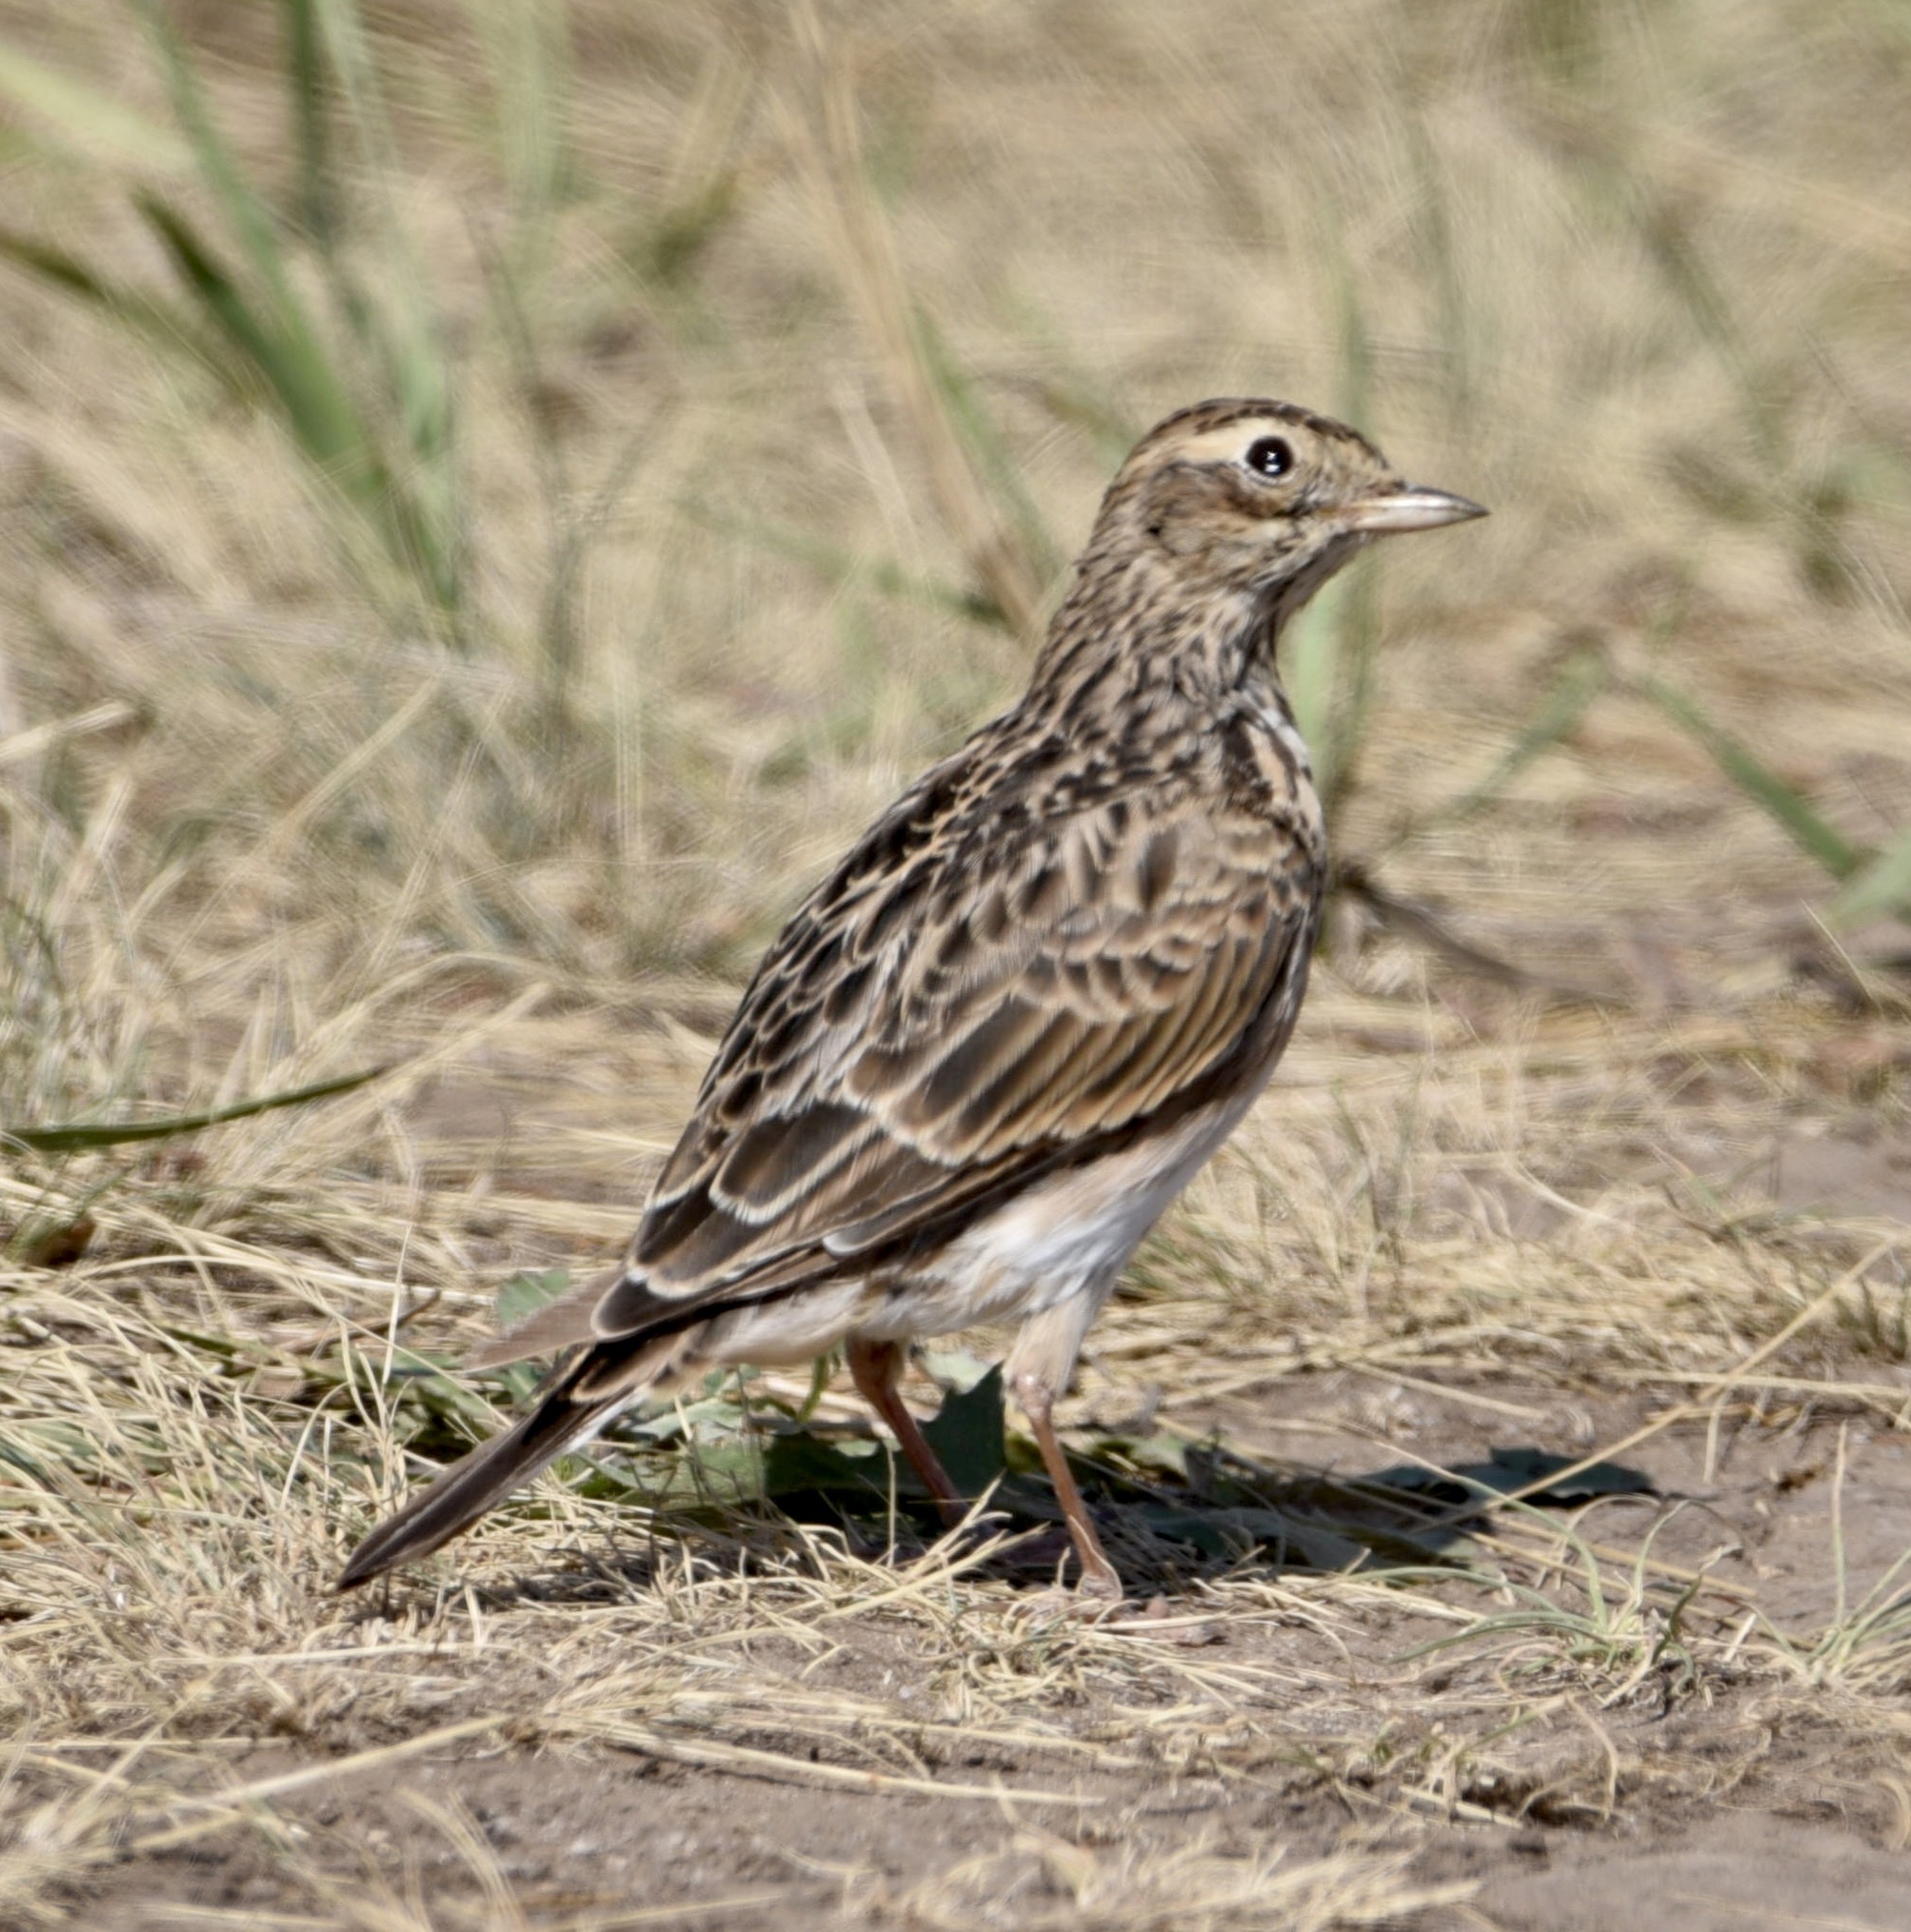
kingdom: Animalia
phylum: Chordata
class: Aves
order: Passeriformes
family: Alaudidae
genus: Alauda
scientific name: Alauda arvensis
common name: Eurasian skylark
